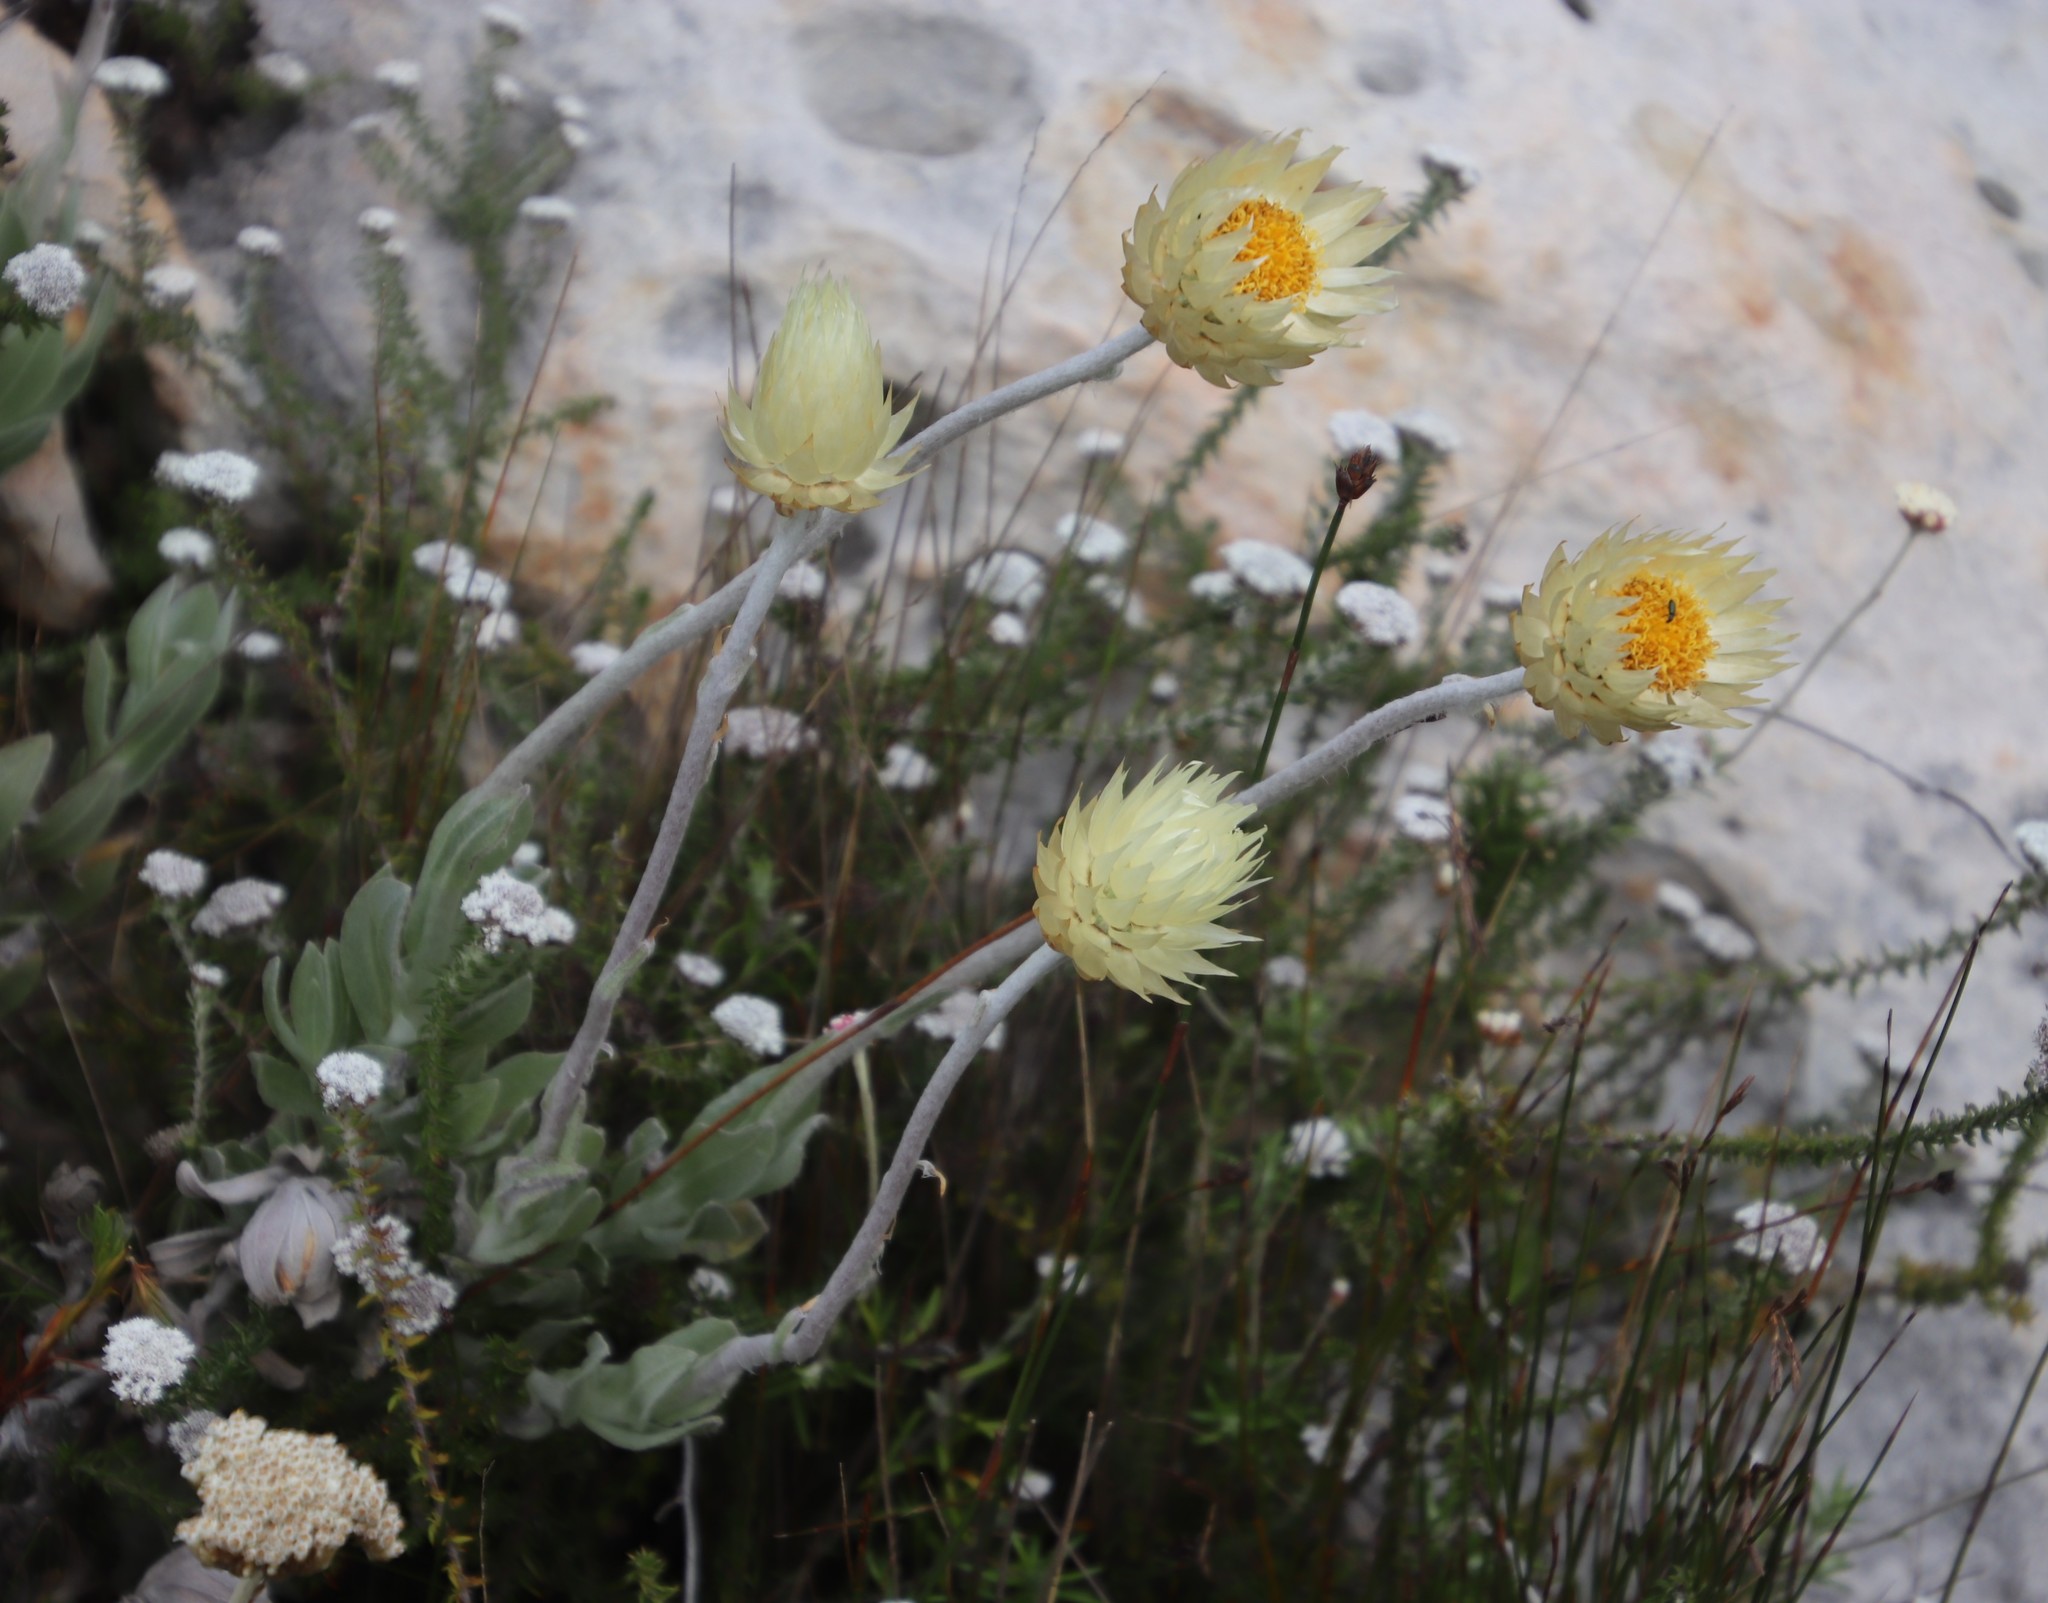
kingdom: Plantae
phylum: Tracheophyta
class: Magnoliopsida
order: Asterales
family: Asteraceae
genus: Syncarpha
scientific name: Syncarpha speciosissima
